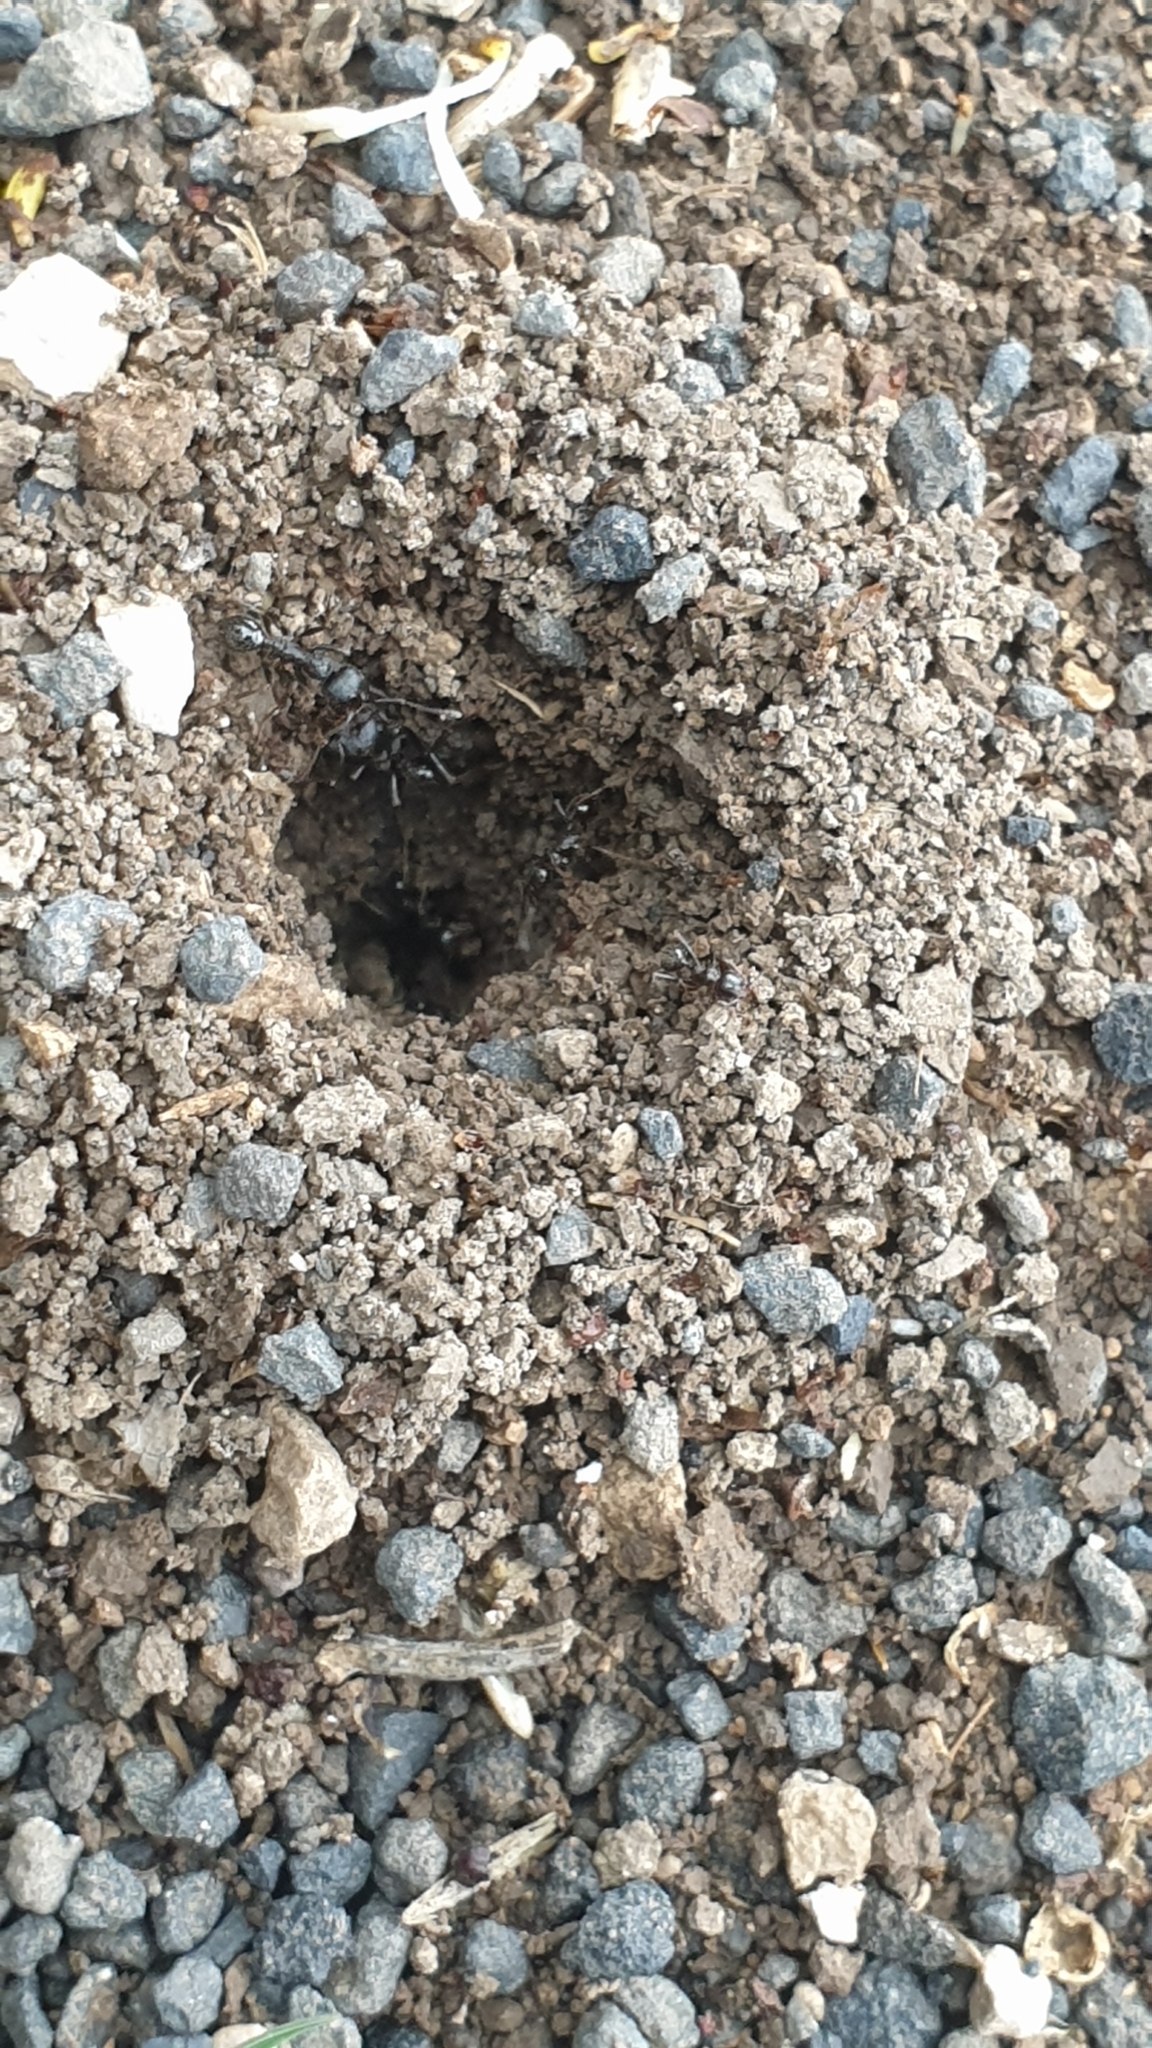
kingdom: Animalia
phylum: Arthropoda
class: Insecta
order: Hymenoptera
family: Formicidae
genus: Messor
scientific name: Messor muticus
